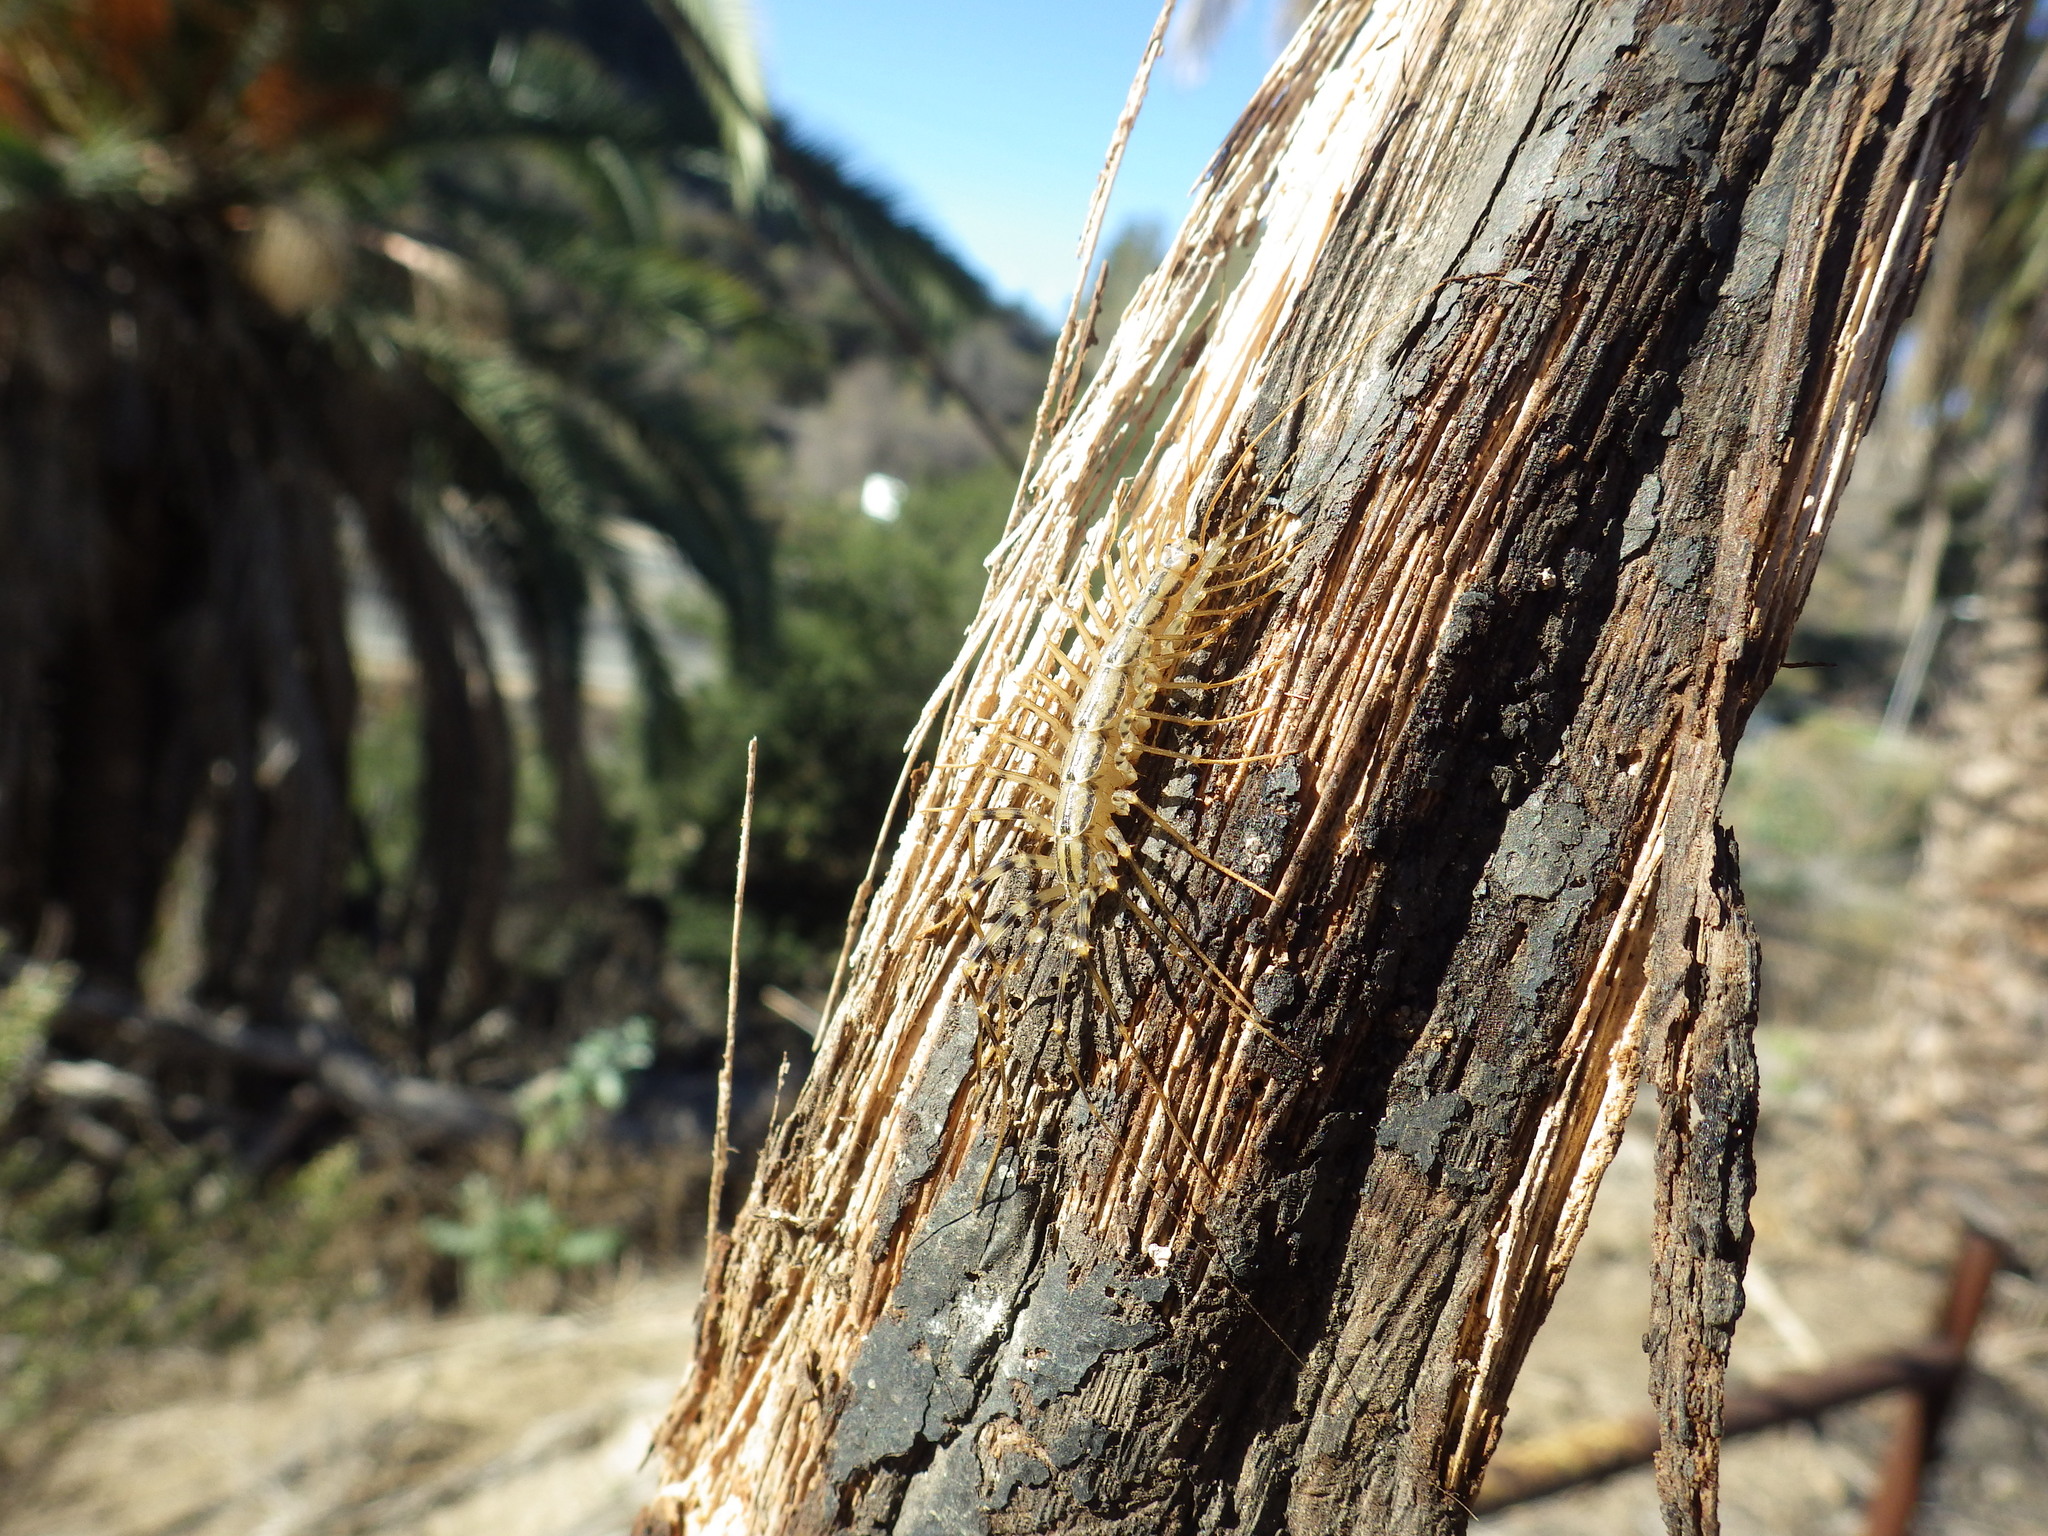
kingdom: Animalia
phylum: Arthropoda
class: Chilopoda
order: Scutigeromorpha
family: Scutigeridae
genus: Scutigera
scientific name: Scutigera coleoptrata
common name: House centipede
